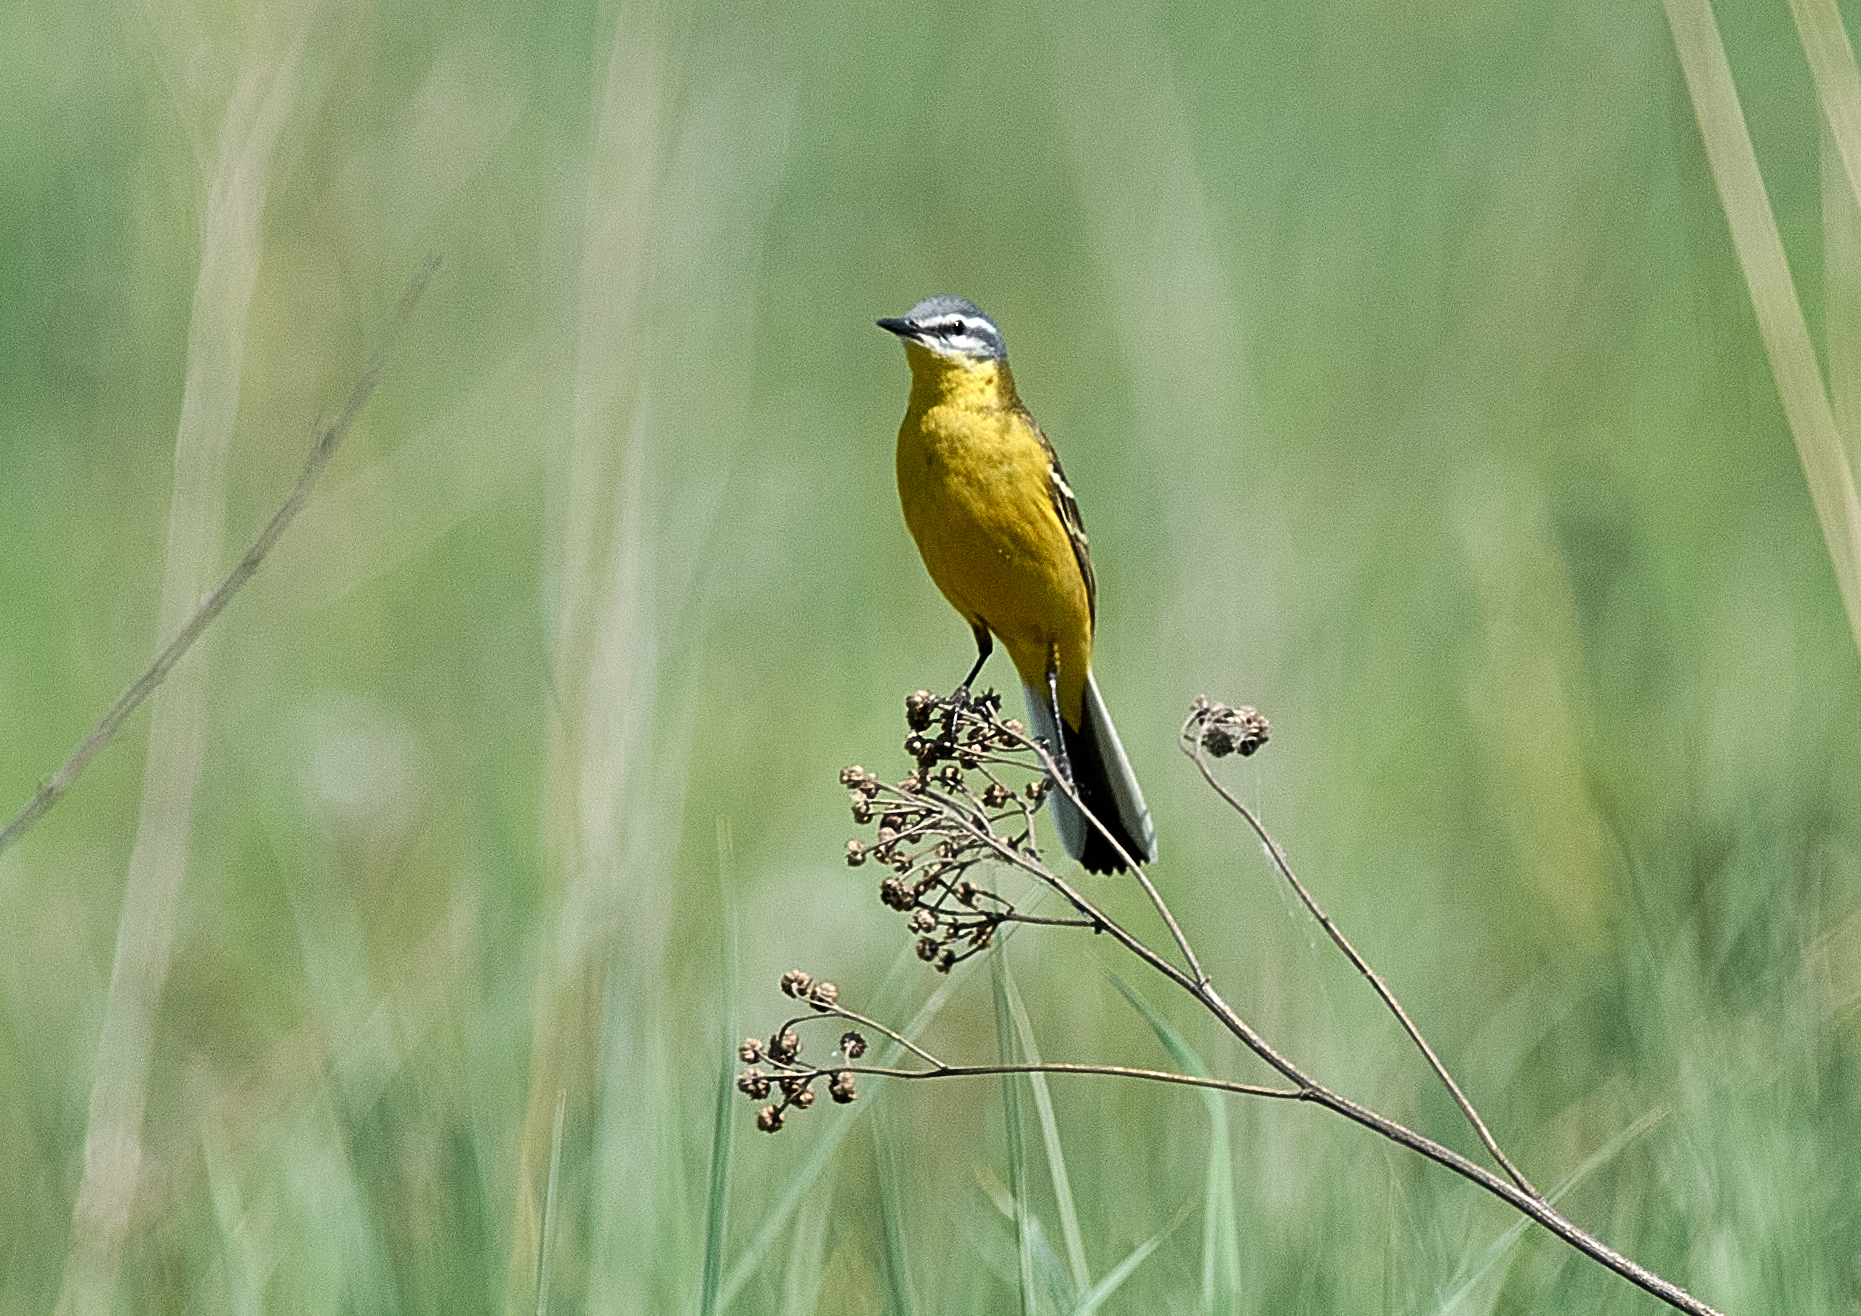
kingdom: Animalia
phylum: Chordata
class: Aves
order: Passeriformes
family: Motacillidae
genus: Motacilla
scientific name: Motacilla flava
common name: Western yellow wagtail
